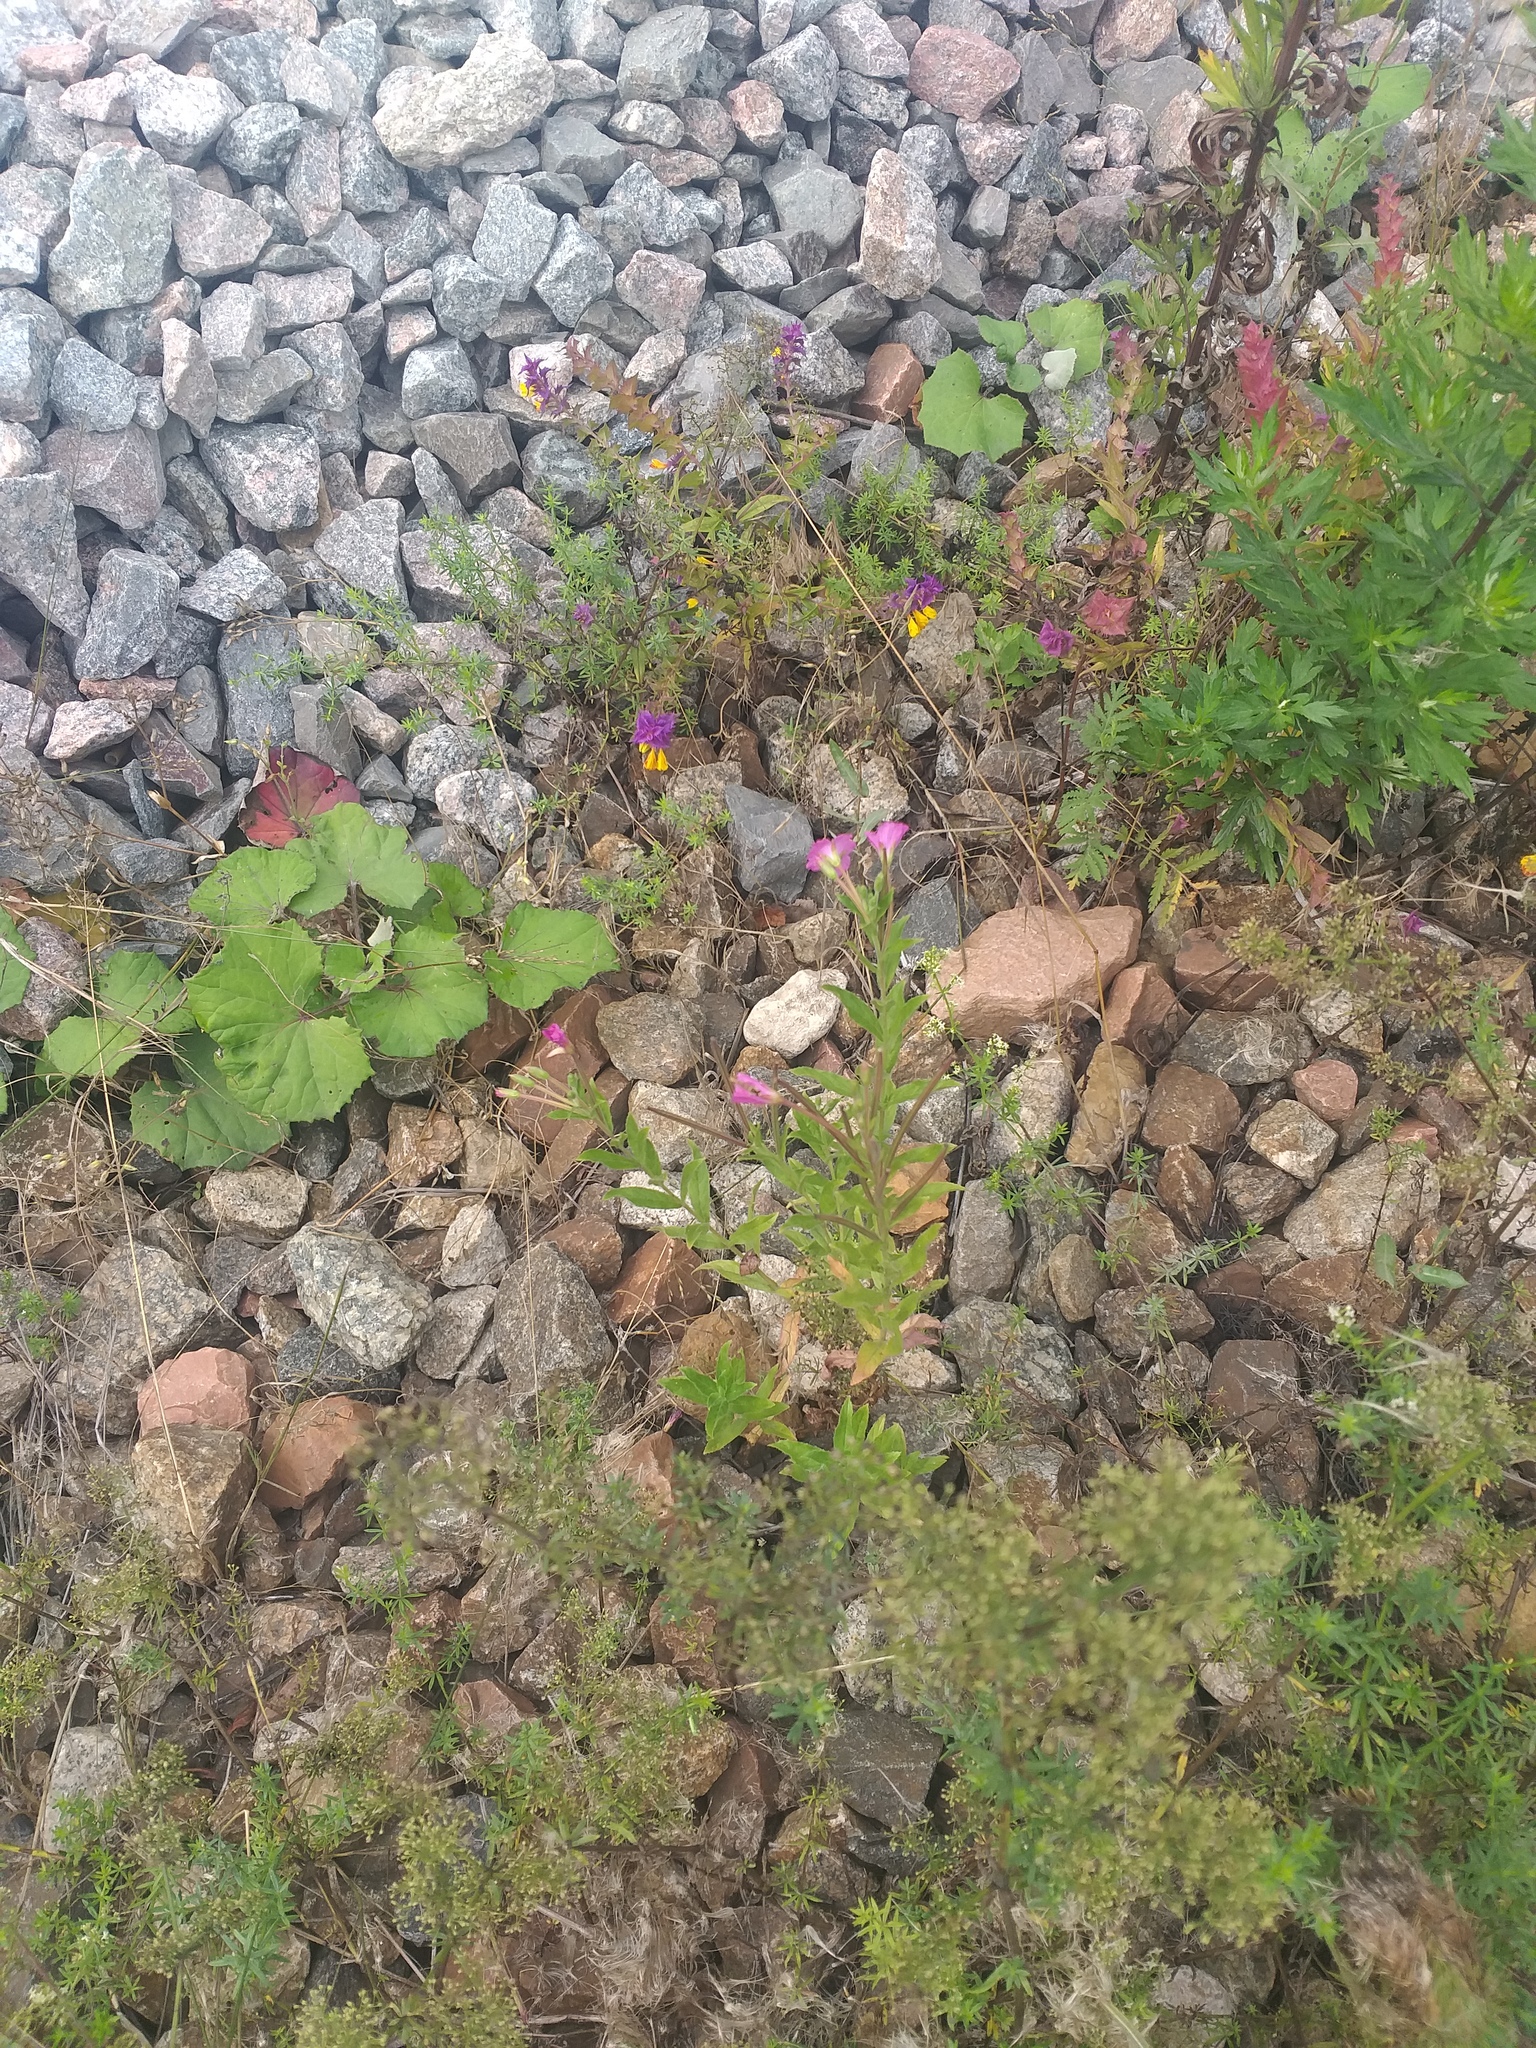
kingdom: Plantae
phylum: Tracheophyta
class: Magnoliopsida
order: Myrtales
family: Onagraceae
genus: Epilobium
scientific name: Epilobium hirsutum
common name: Great willowherb
